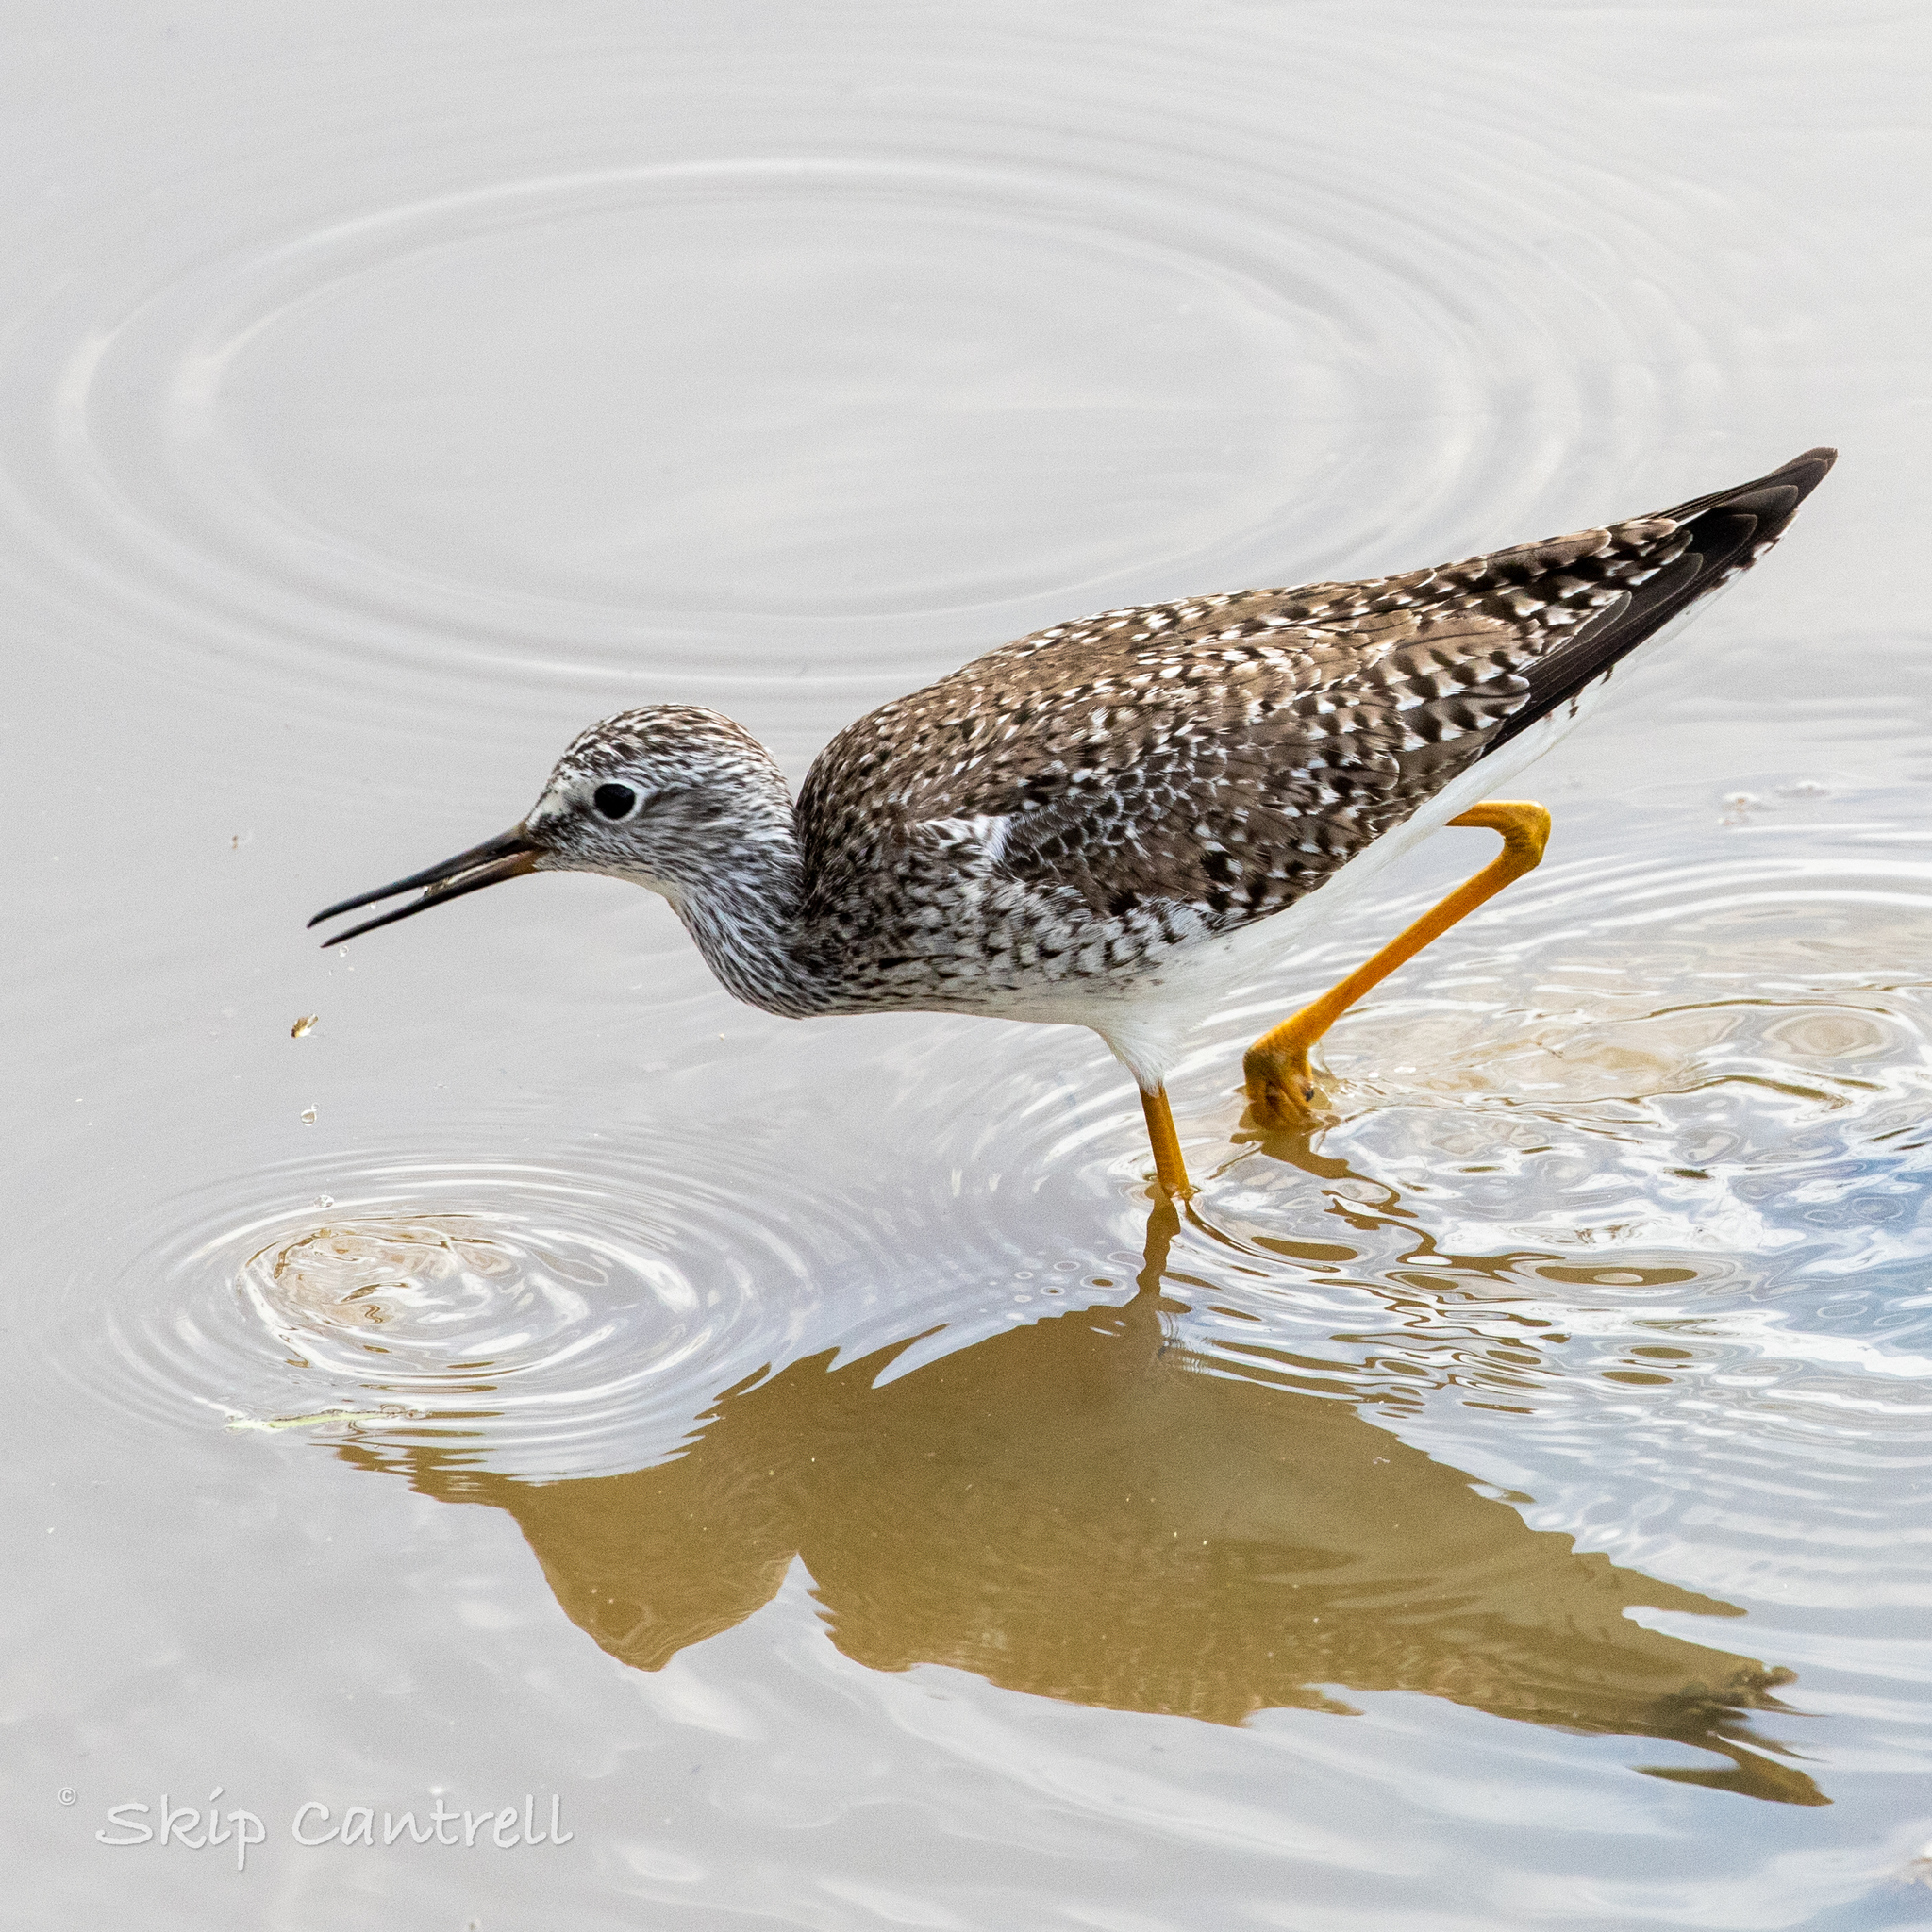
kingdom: Animalia
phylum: Chordata
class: Aves
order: Charadriiformes
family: Scolopacidae
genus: Tringa
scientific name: Tringa melanoleuca
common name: Greater yellowlegs
